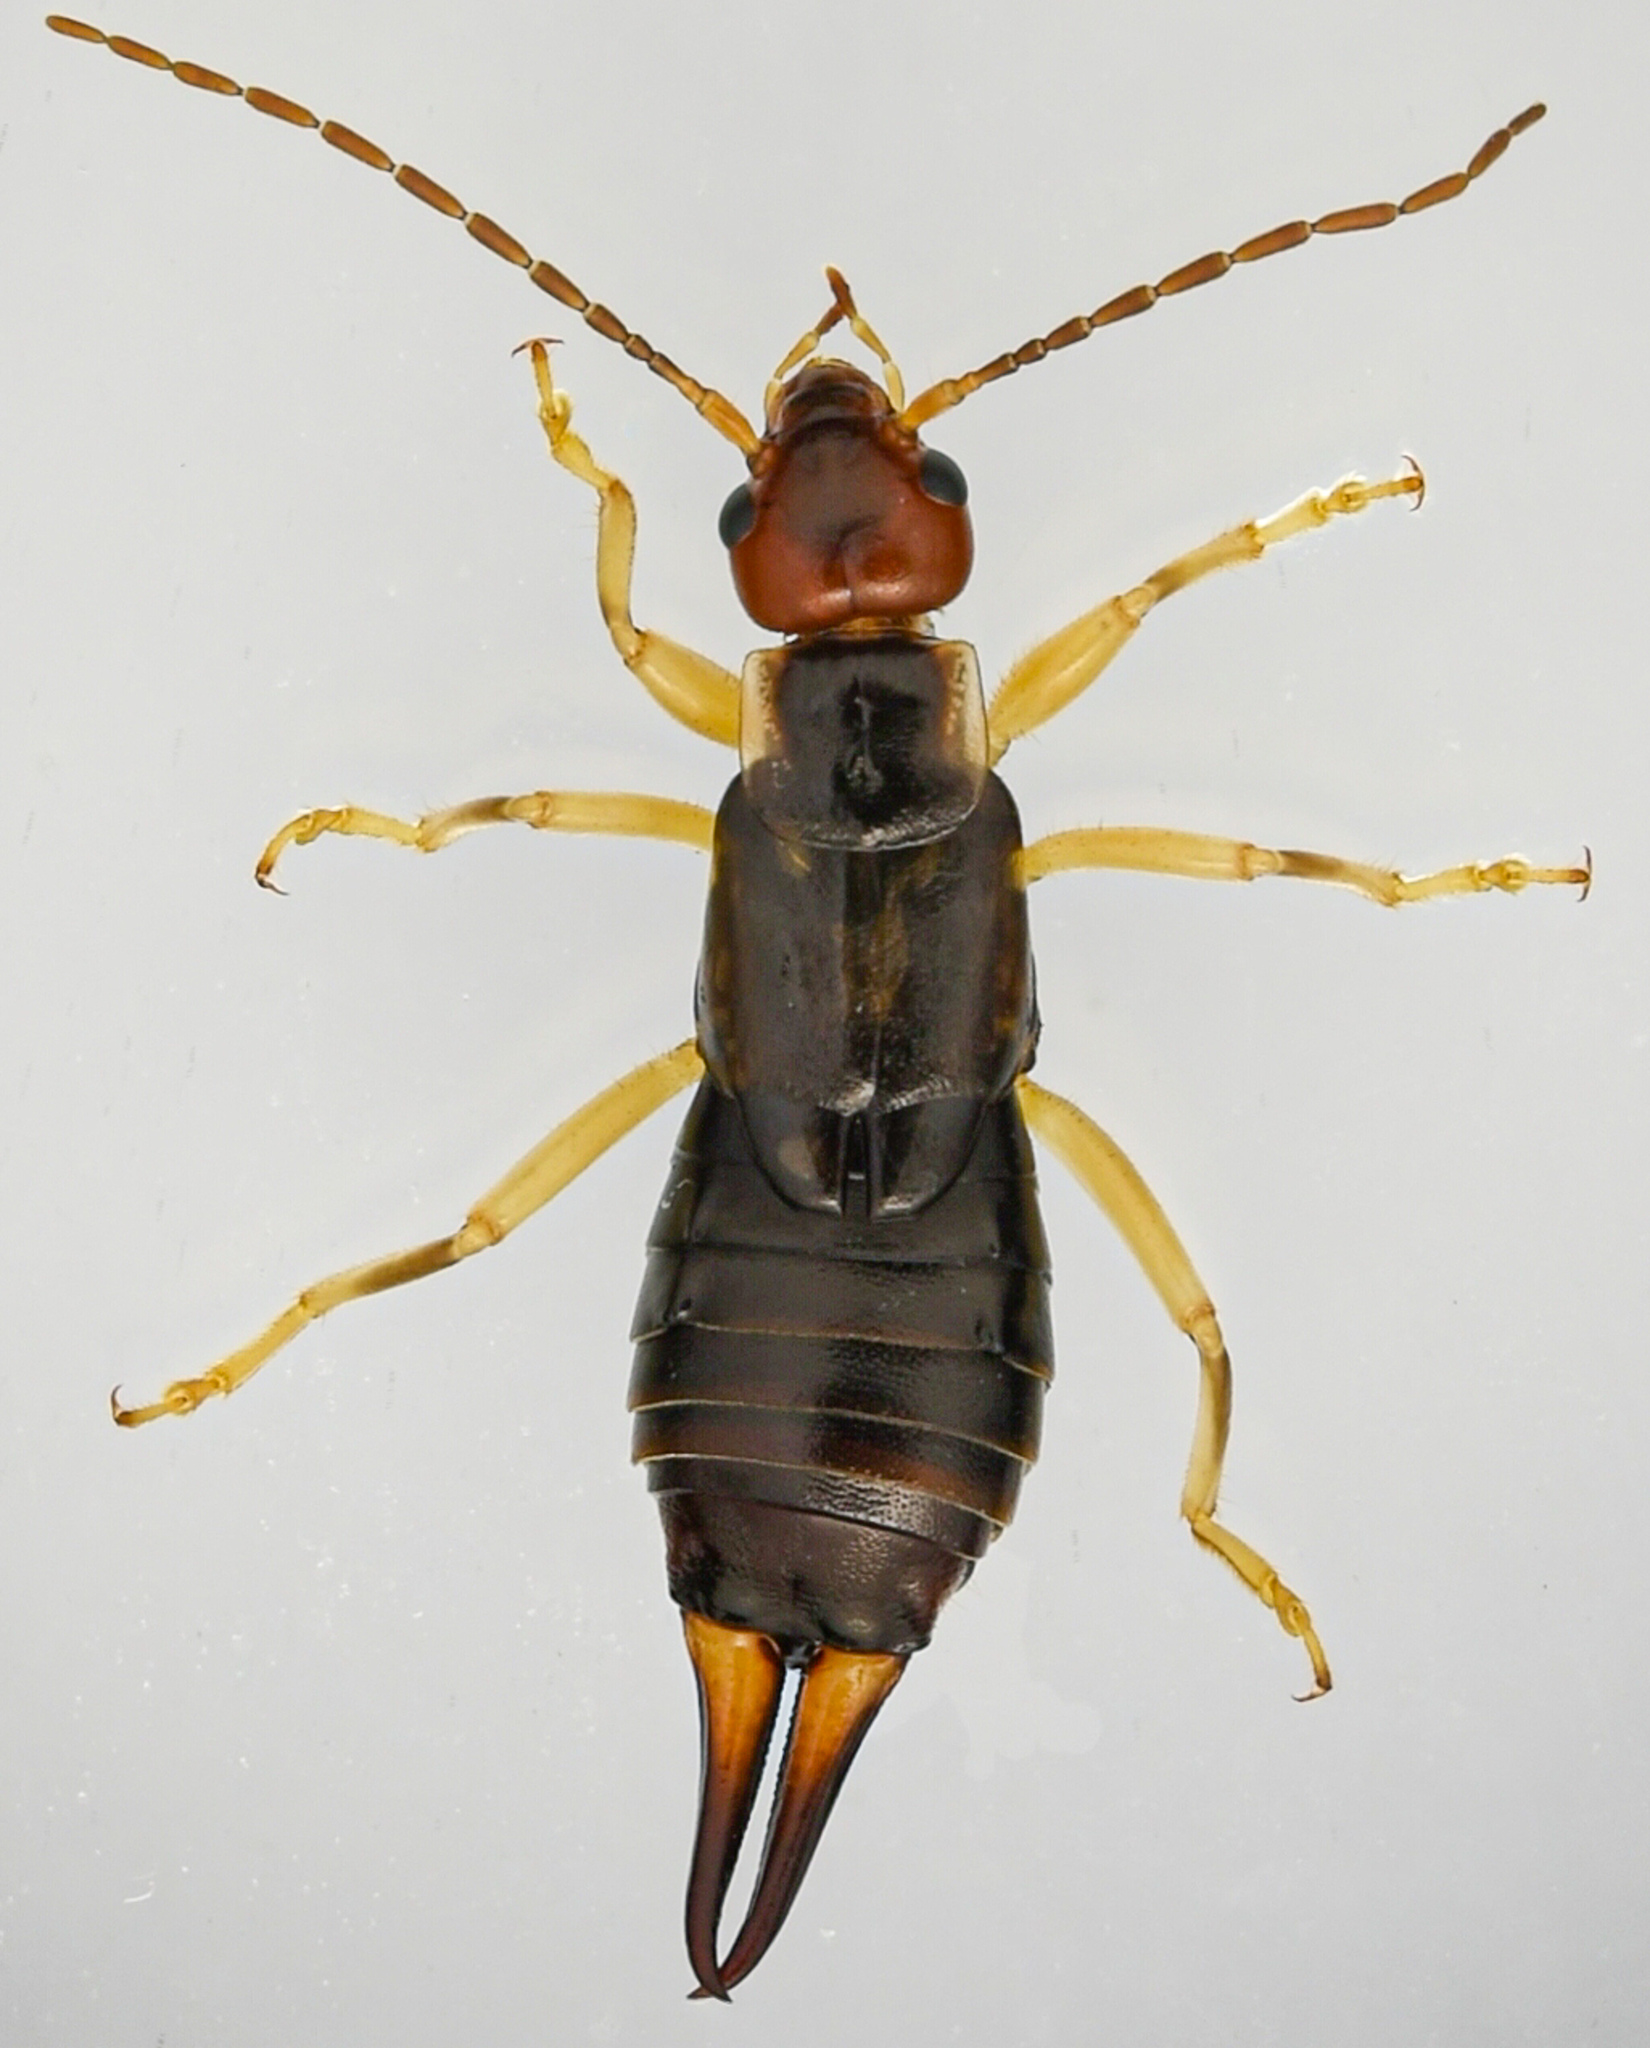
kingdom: Animalia
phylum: Arthropoda
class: Insecta
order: Dermaptera
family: Forficulidae
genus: Forficula
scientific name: Forficula
